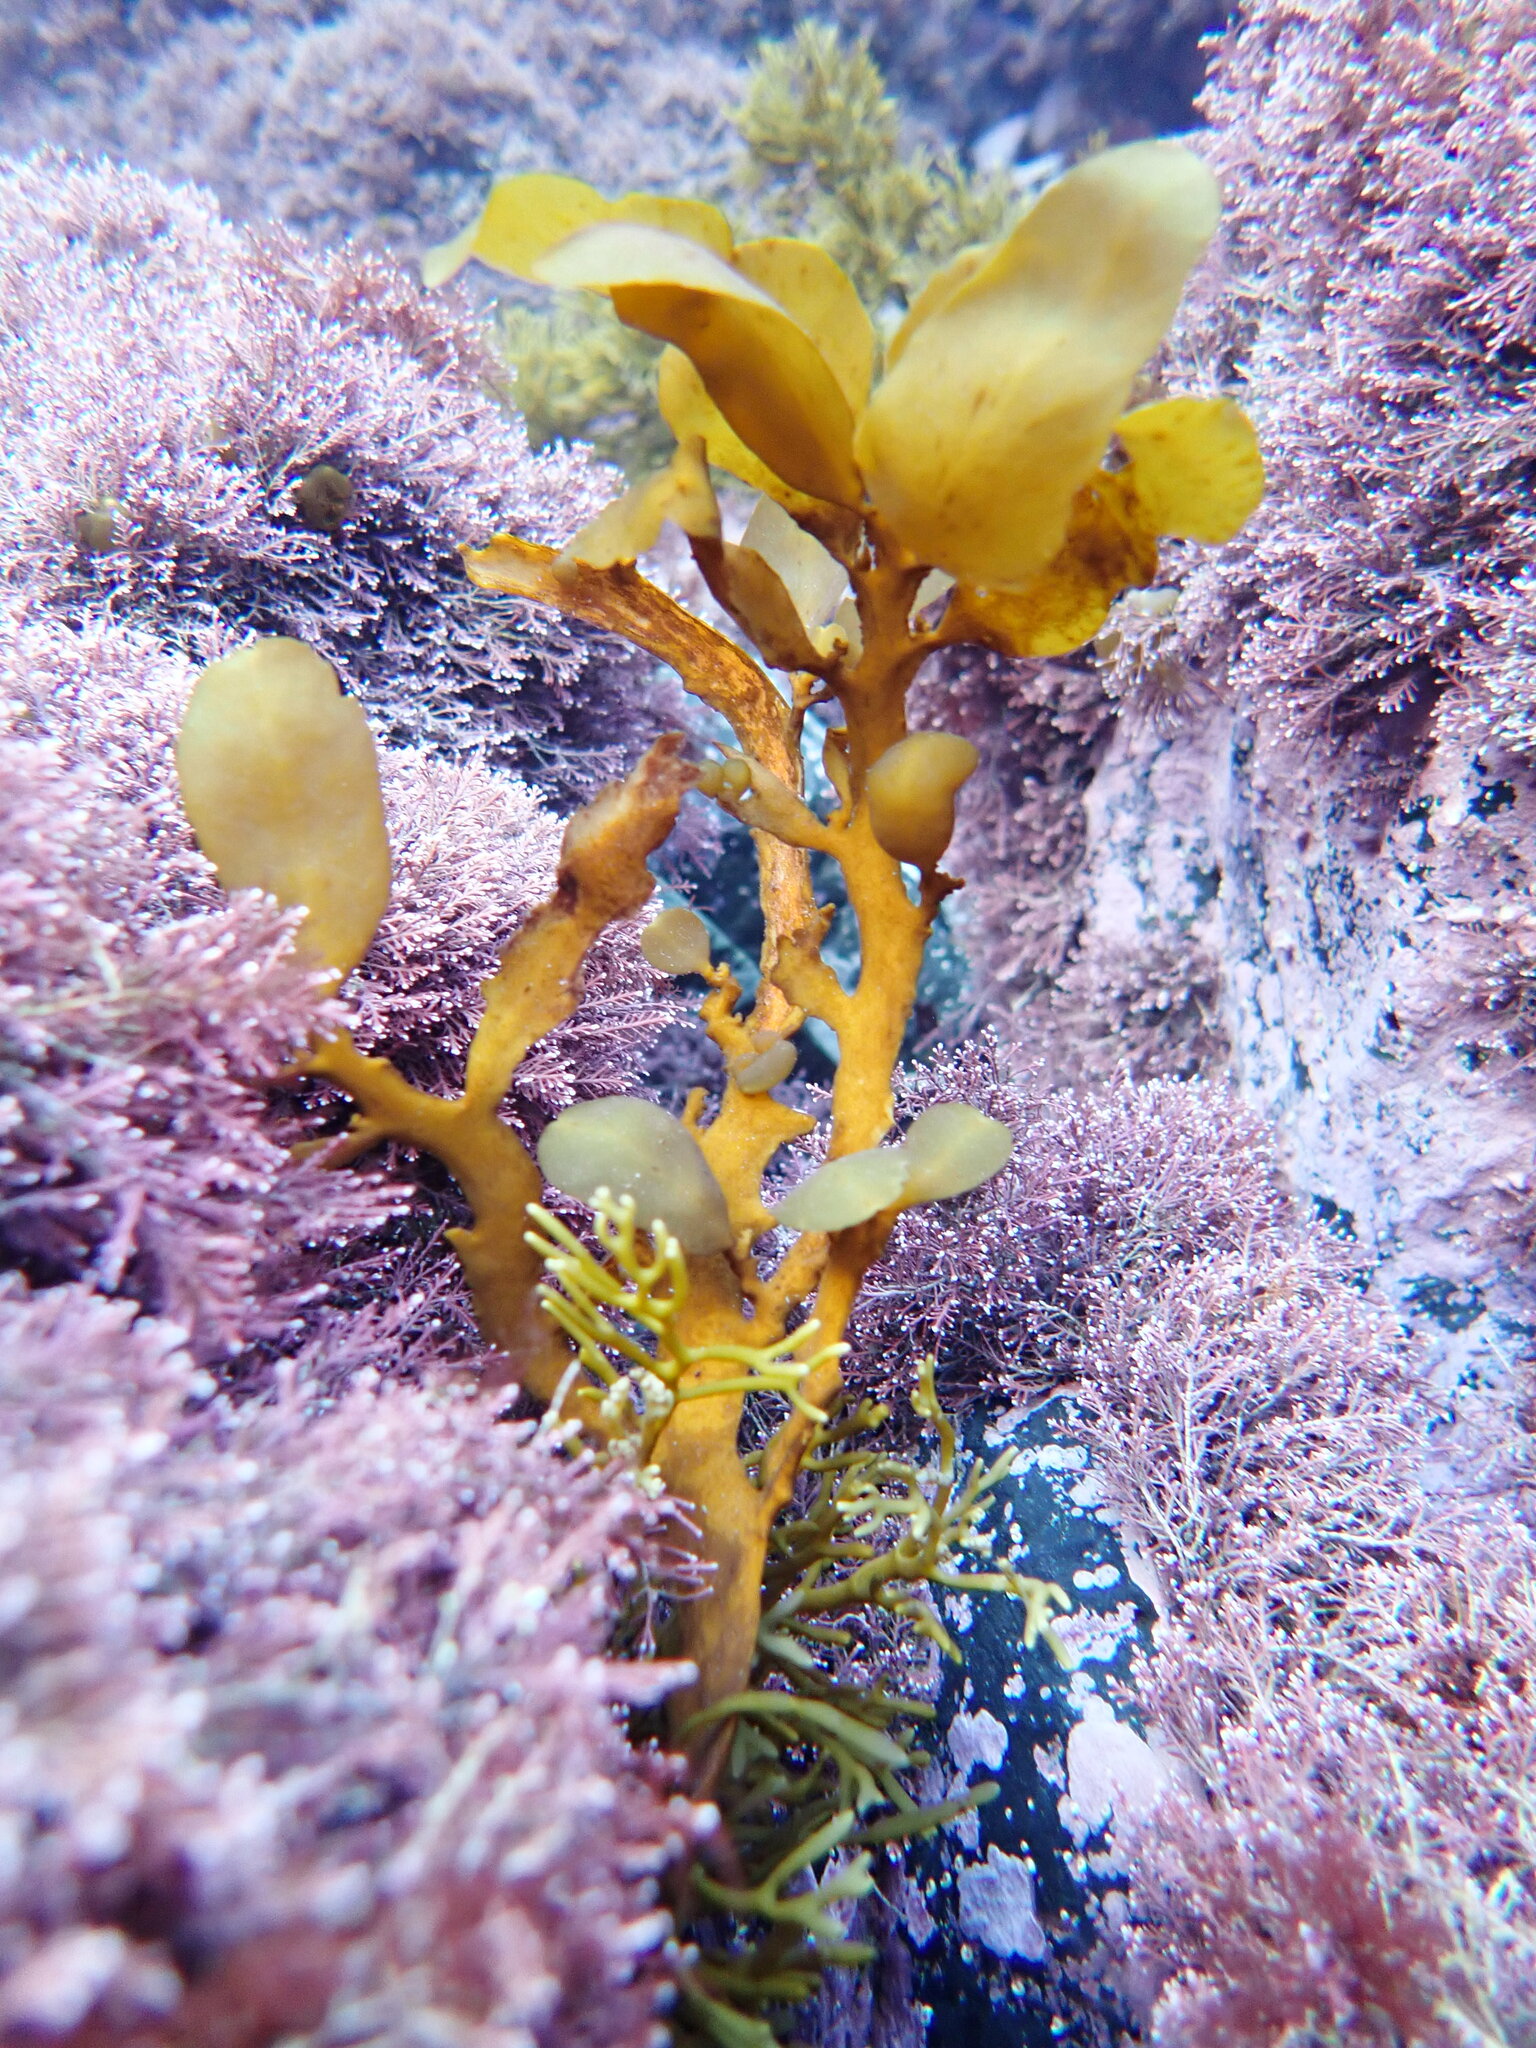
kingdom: Chromista
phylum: Ochrophyta
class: Phaeophyceae
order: Fucales
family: Sargassaceae
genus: Carpophyllum
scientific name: Carpophyllum flexuosum
